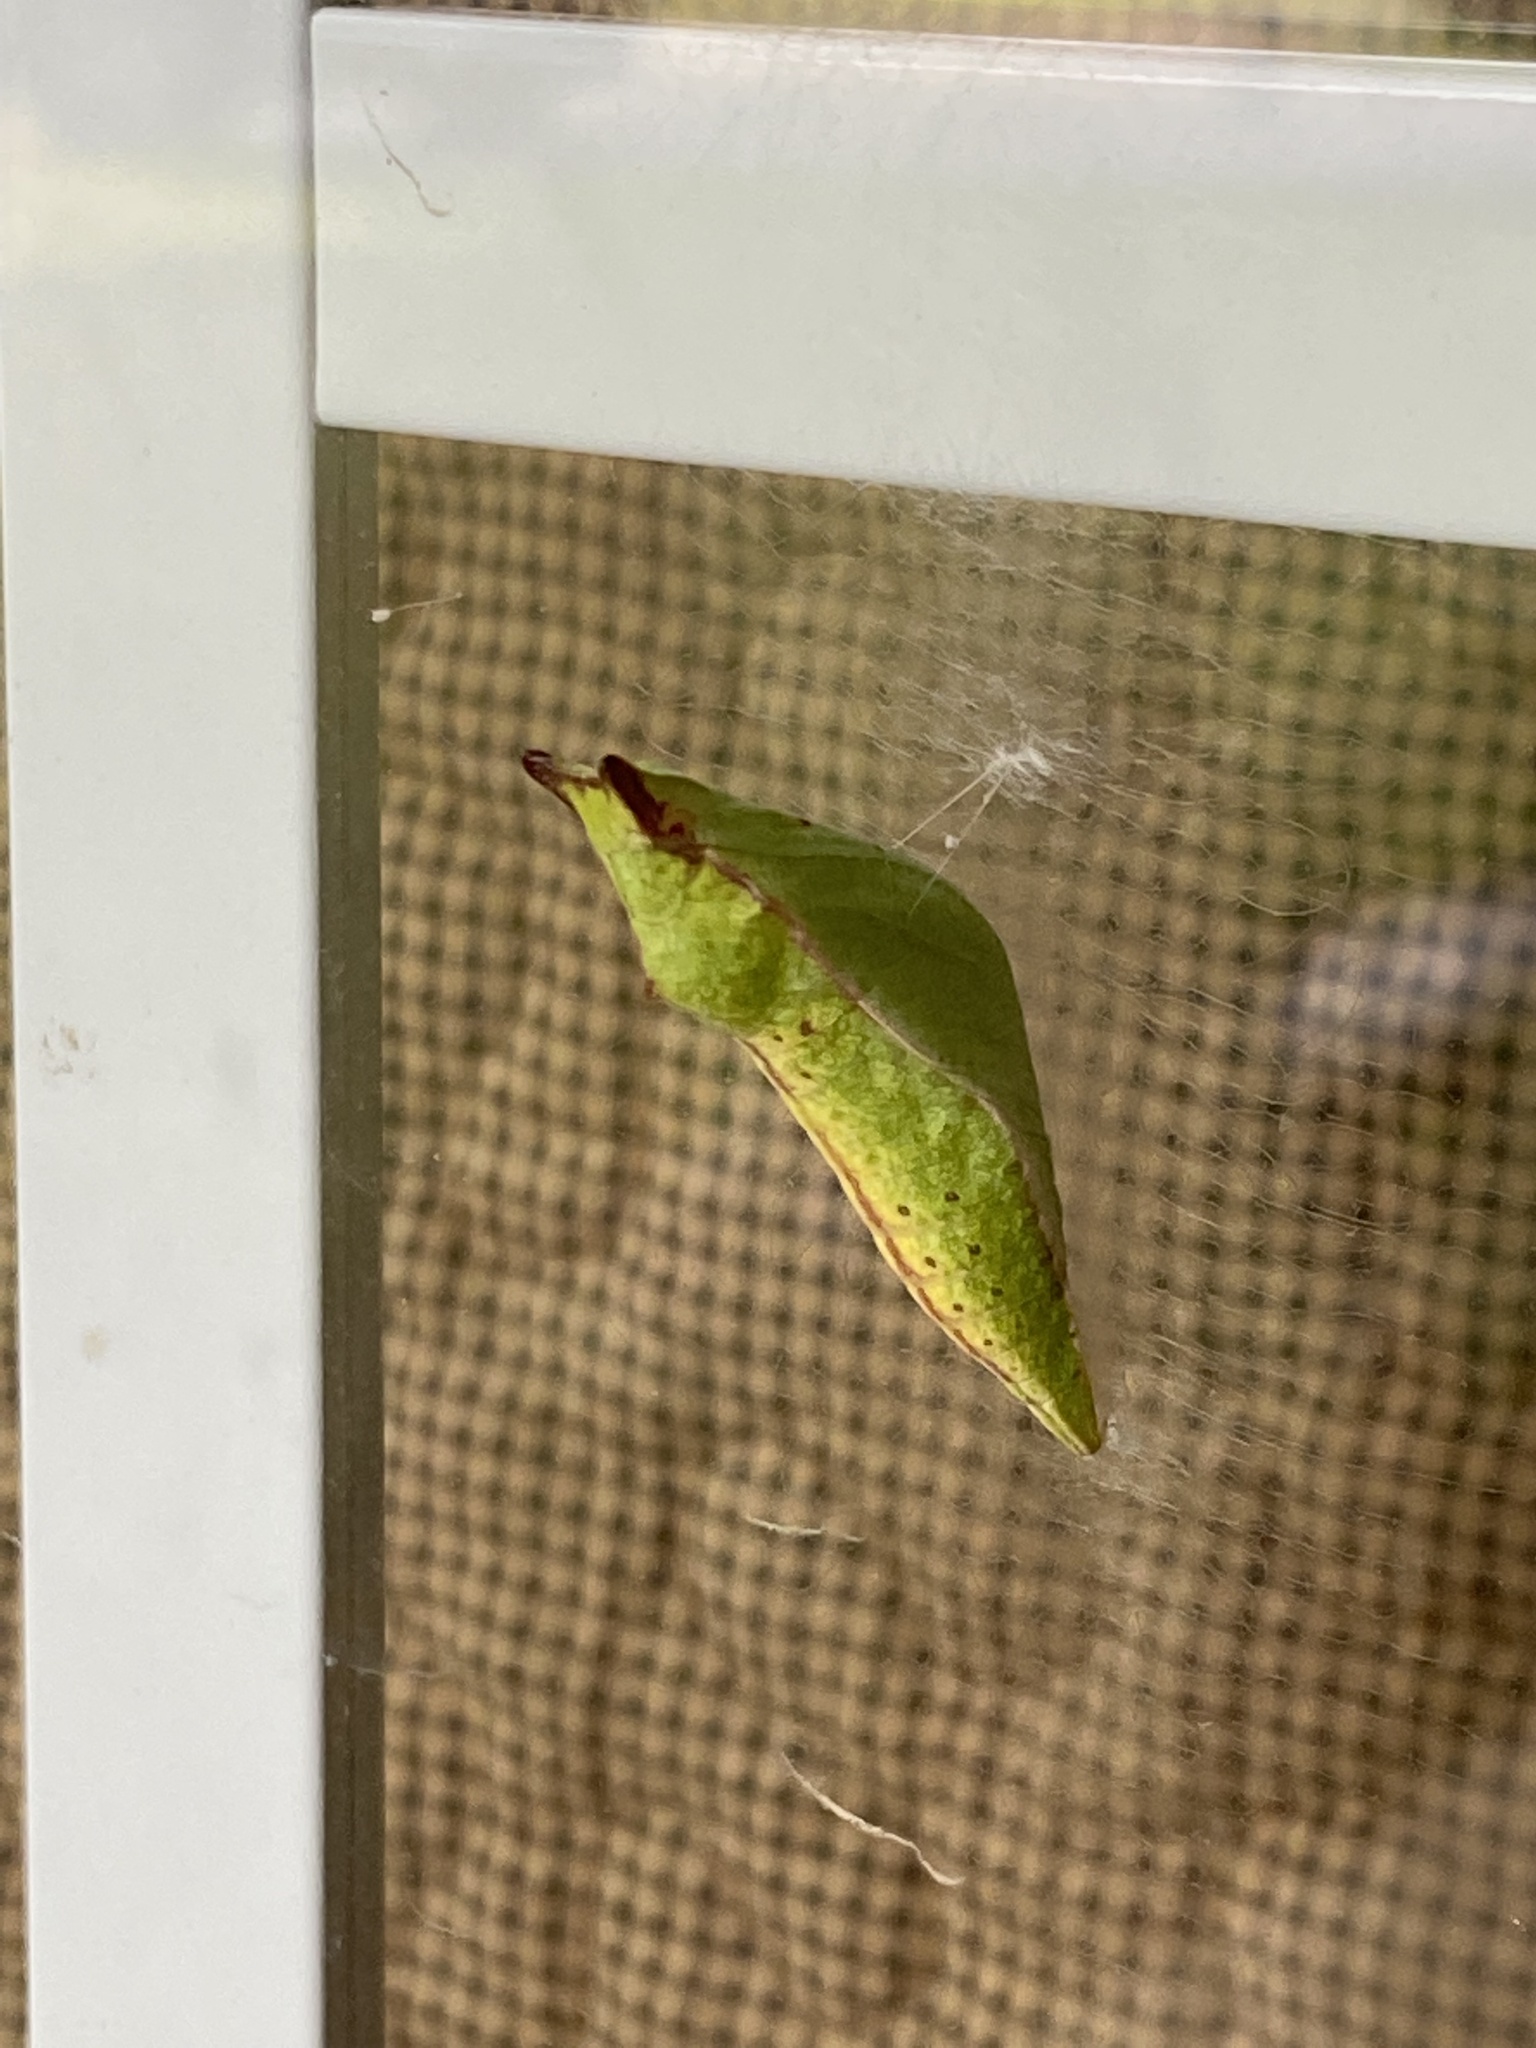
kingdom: Animalia
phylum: Arthropoda
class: Insecta
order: Lepidoptera
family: Papilionidae
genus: Papilio
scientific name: Papilio troilus
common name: Spicebush swallowtail
